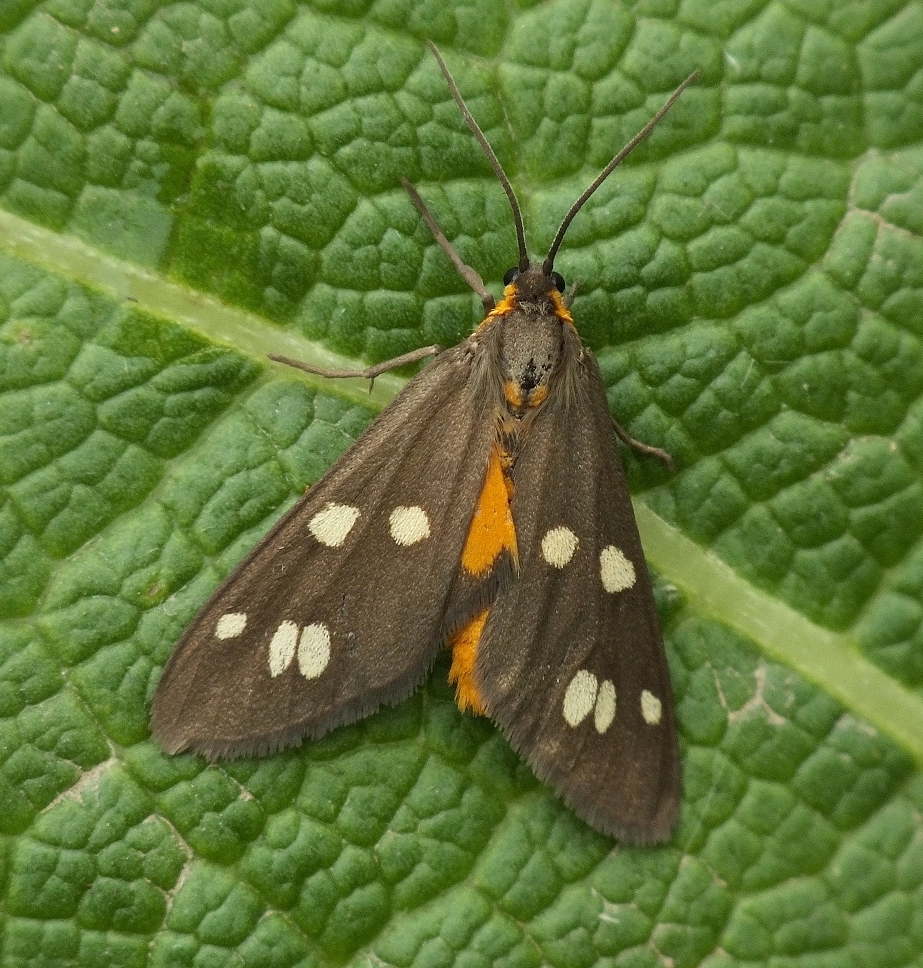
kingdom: Animalia
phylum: Arthropoda
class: Insecta
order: Lepidoptera
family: Erebidae
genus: Dysauxes
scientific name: Dysauxes punctata
